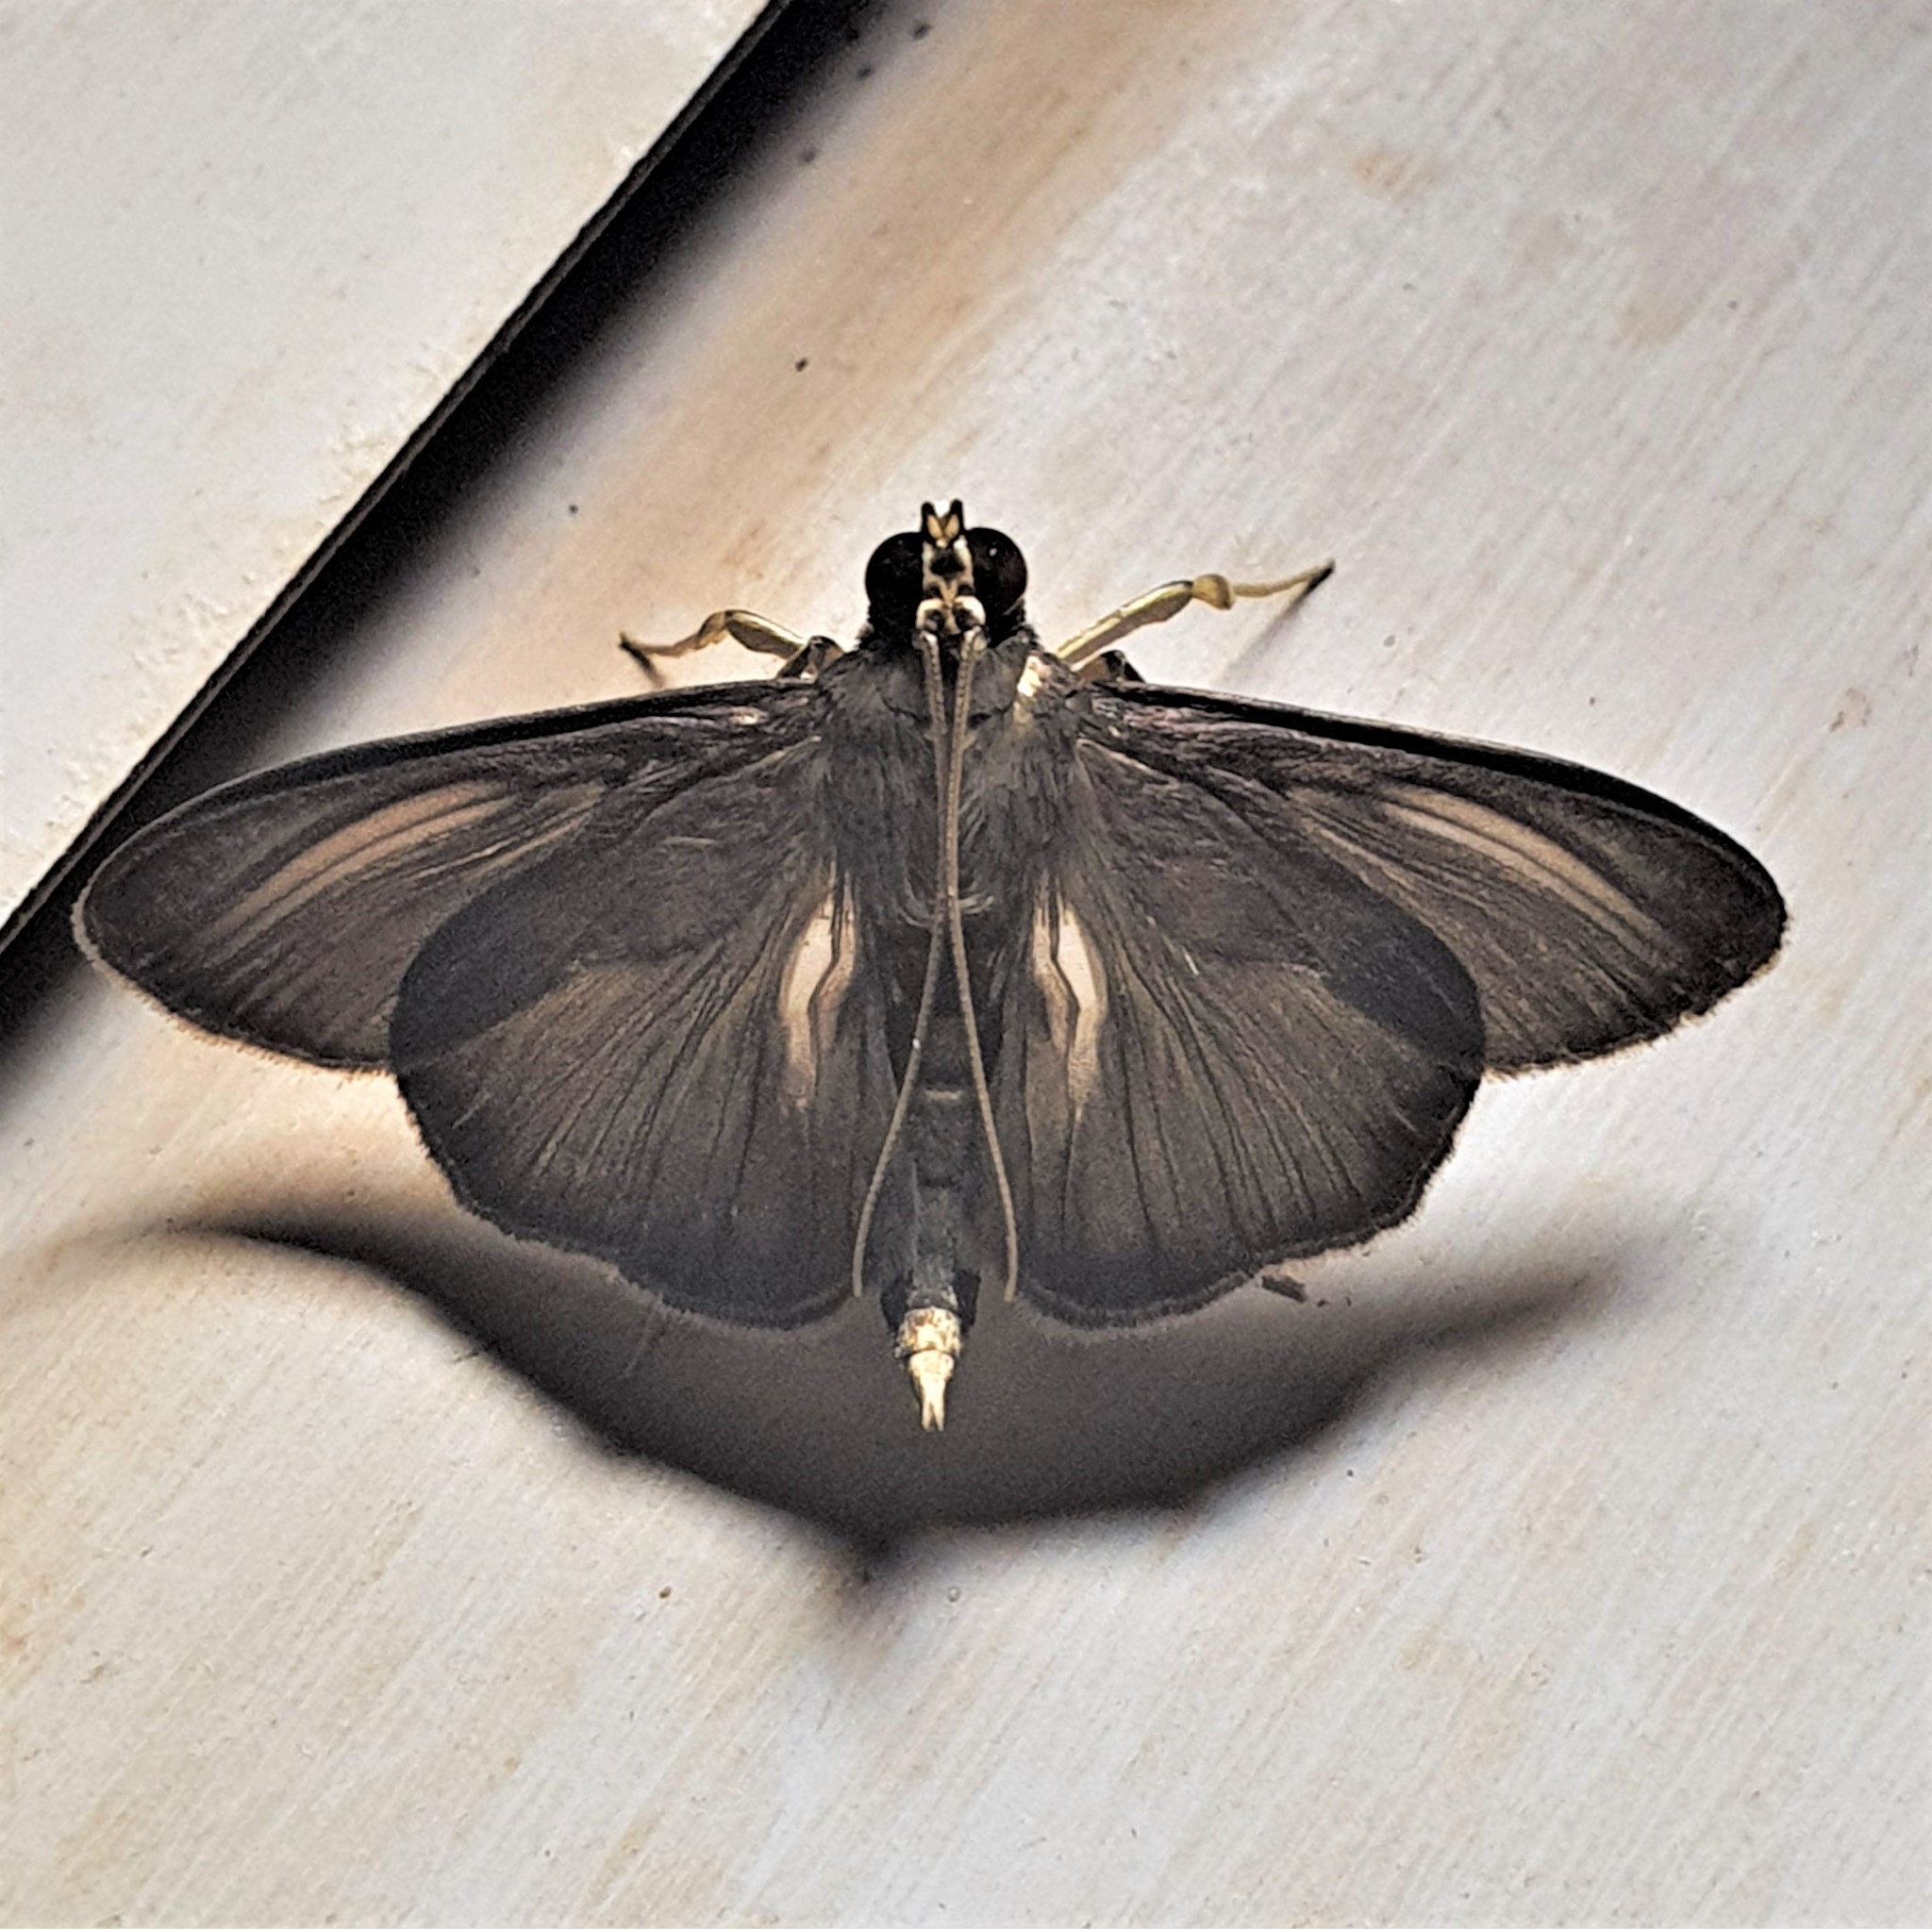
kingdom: Animalia
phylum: Arthropoda
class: Insecta
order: Lepidoptera
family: Crambidae
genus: Phostria
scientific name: Phostria Phryganodes plicatalis
